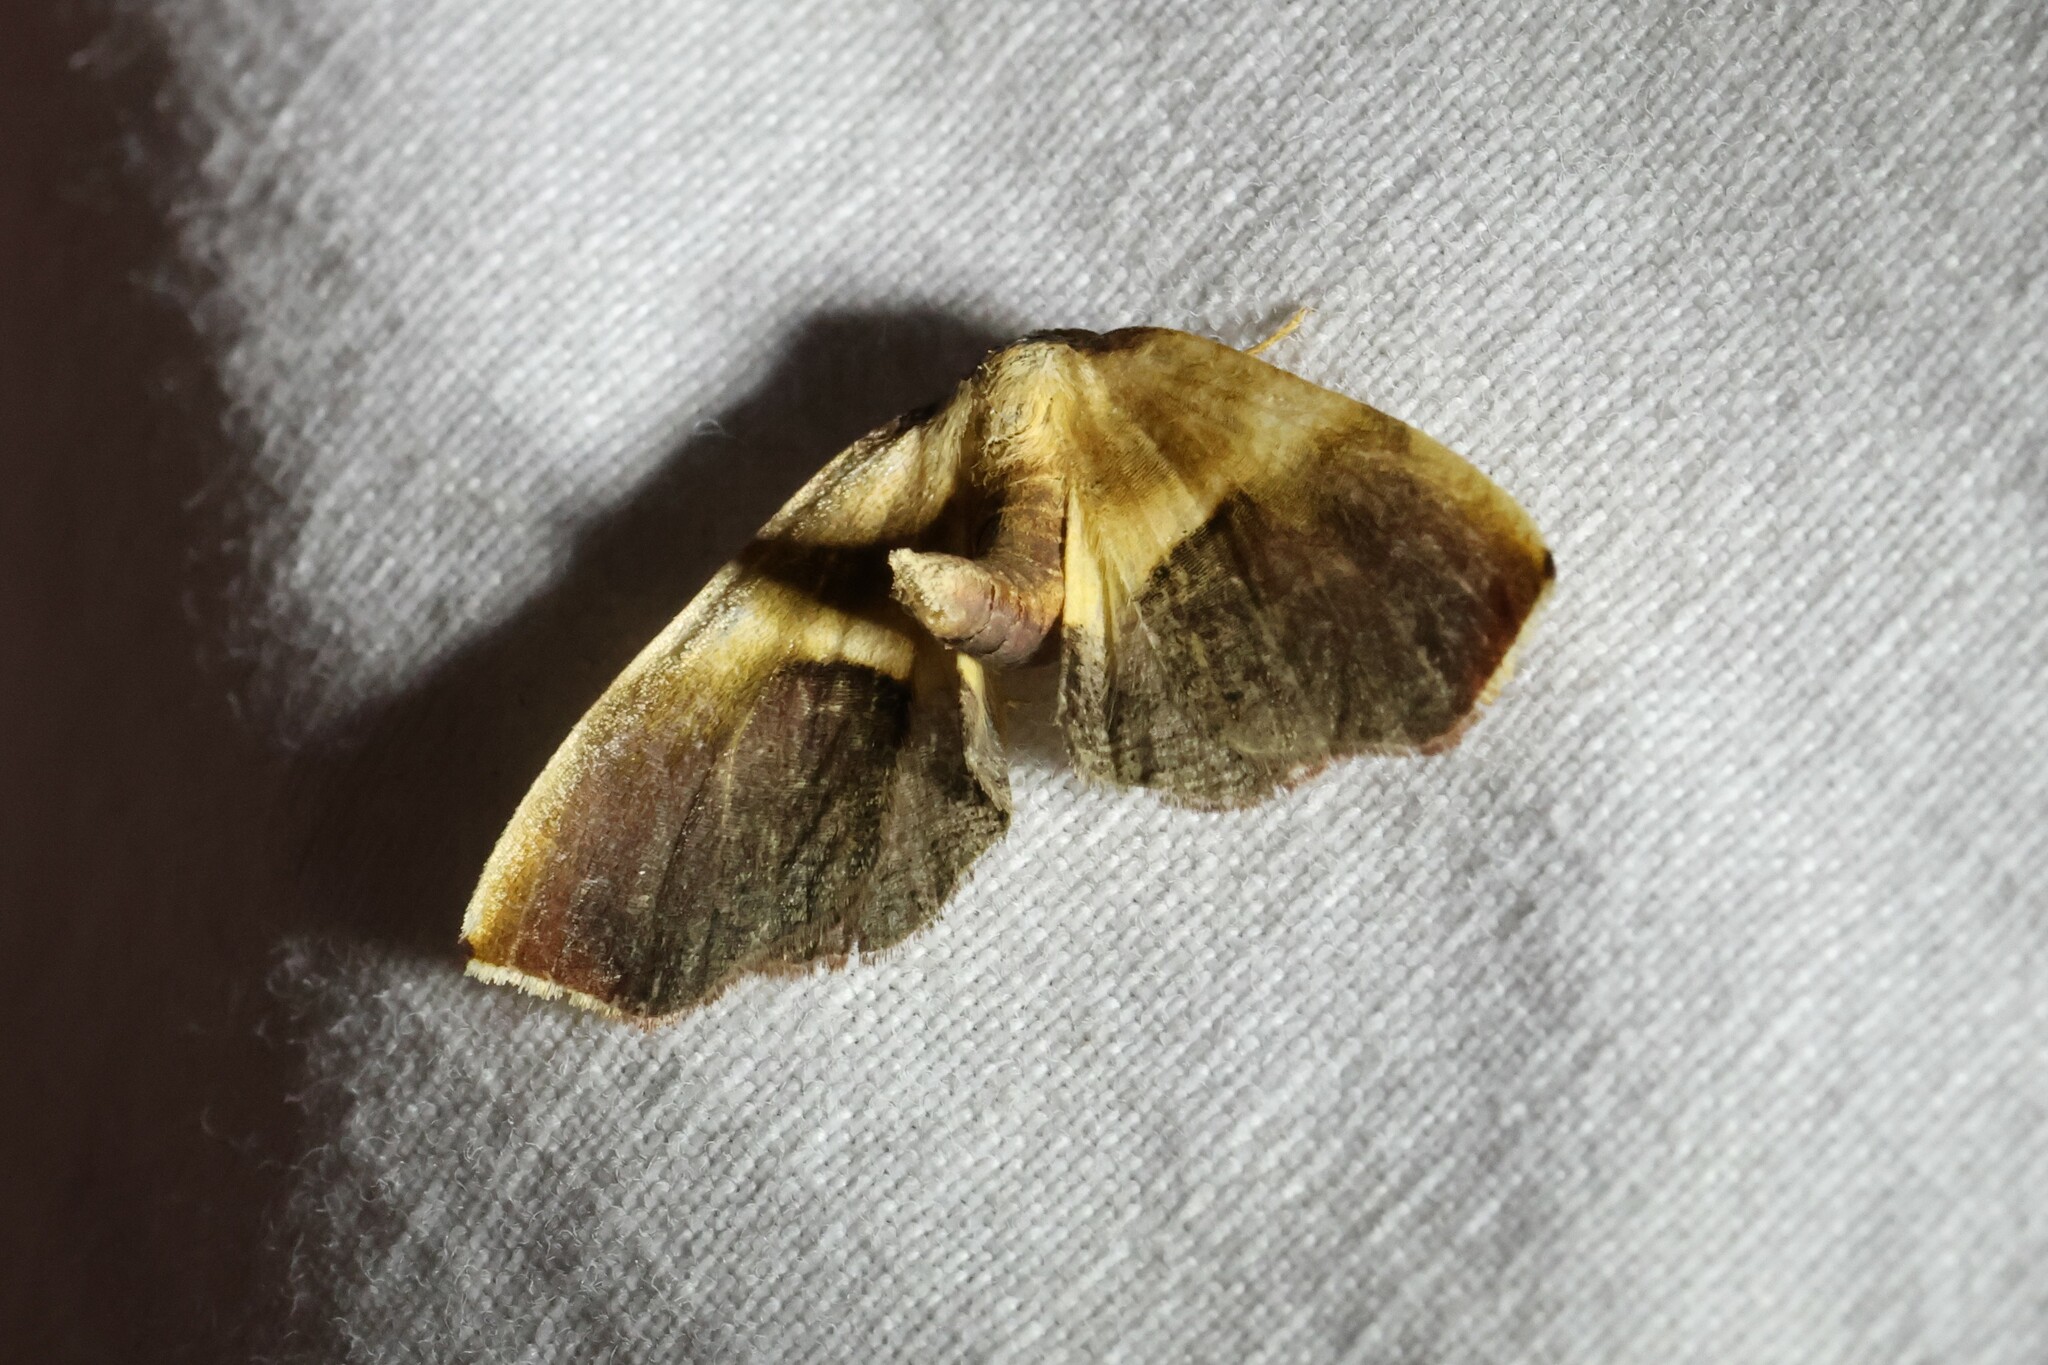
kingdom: Animalia
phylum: Arthropoda
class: Insecta
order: Lepidoptera
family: Geometridae
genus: Plagodis
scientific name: Plagodis kuetzingi
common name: Purple plagodis
